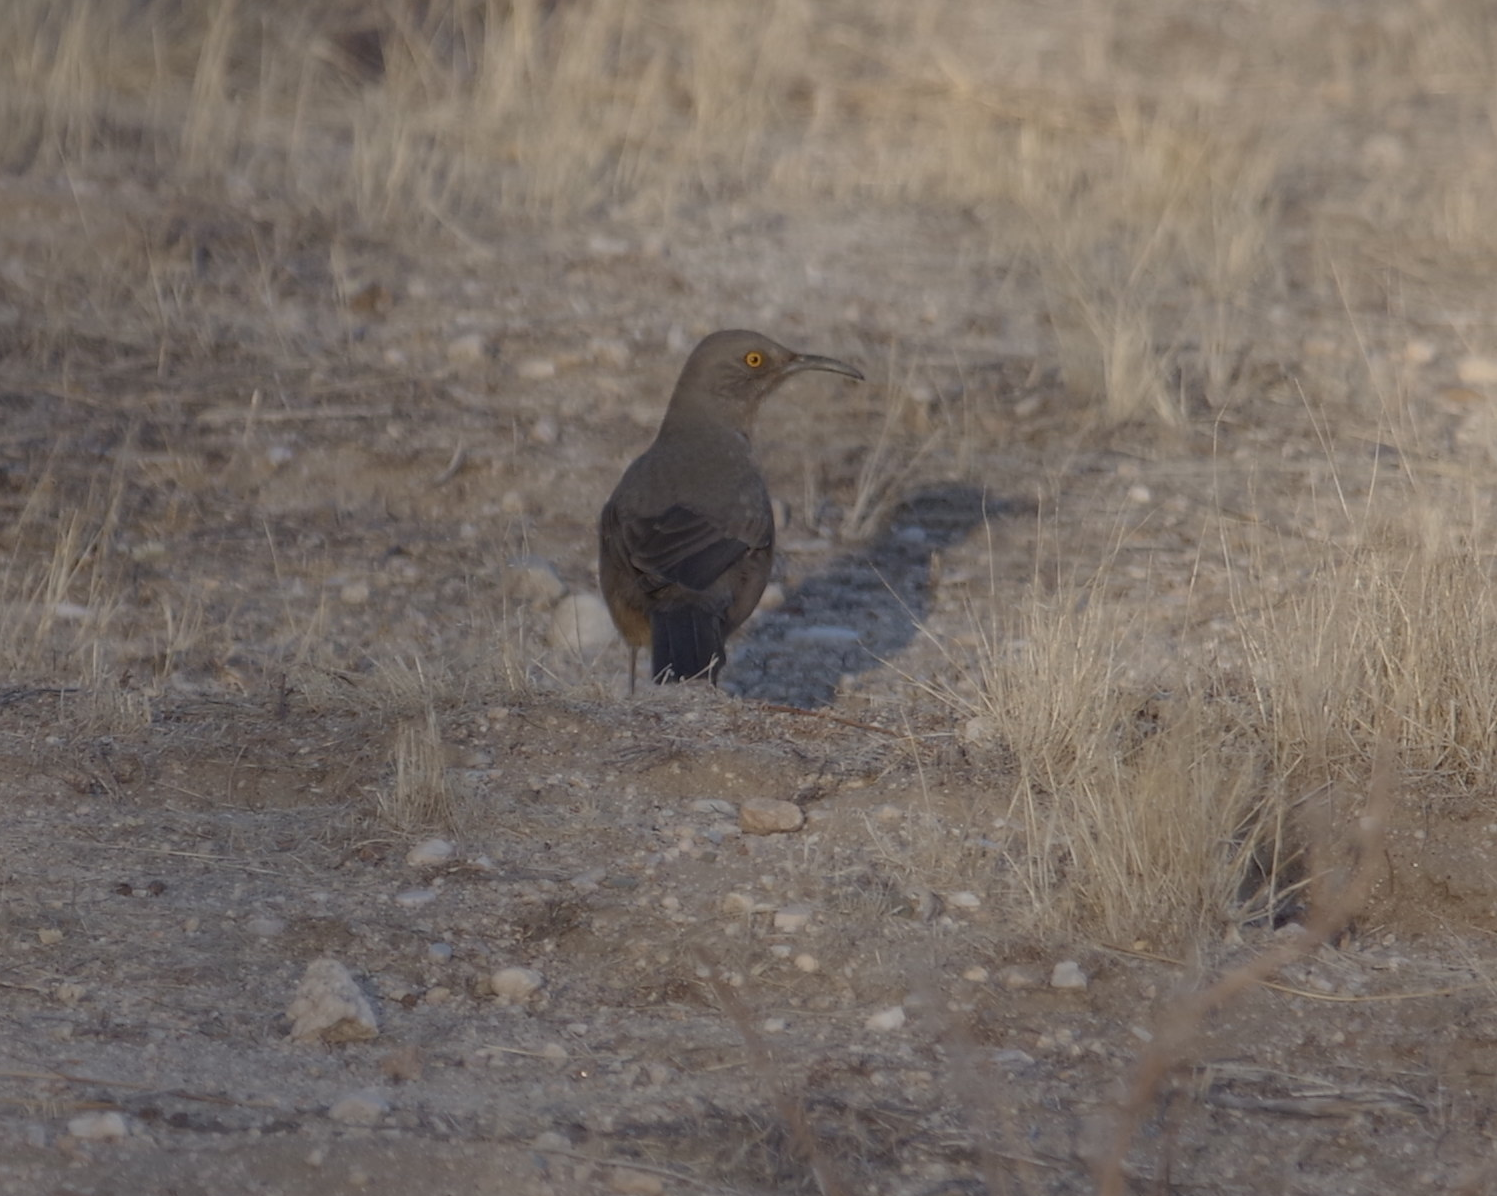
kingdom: Animalia
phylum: Chordata
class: Aves
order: Passeriformes
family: Mimidae
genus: Toxostoma
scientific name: Toxostoma curvirostre
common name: Curve-billed thrasher
